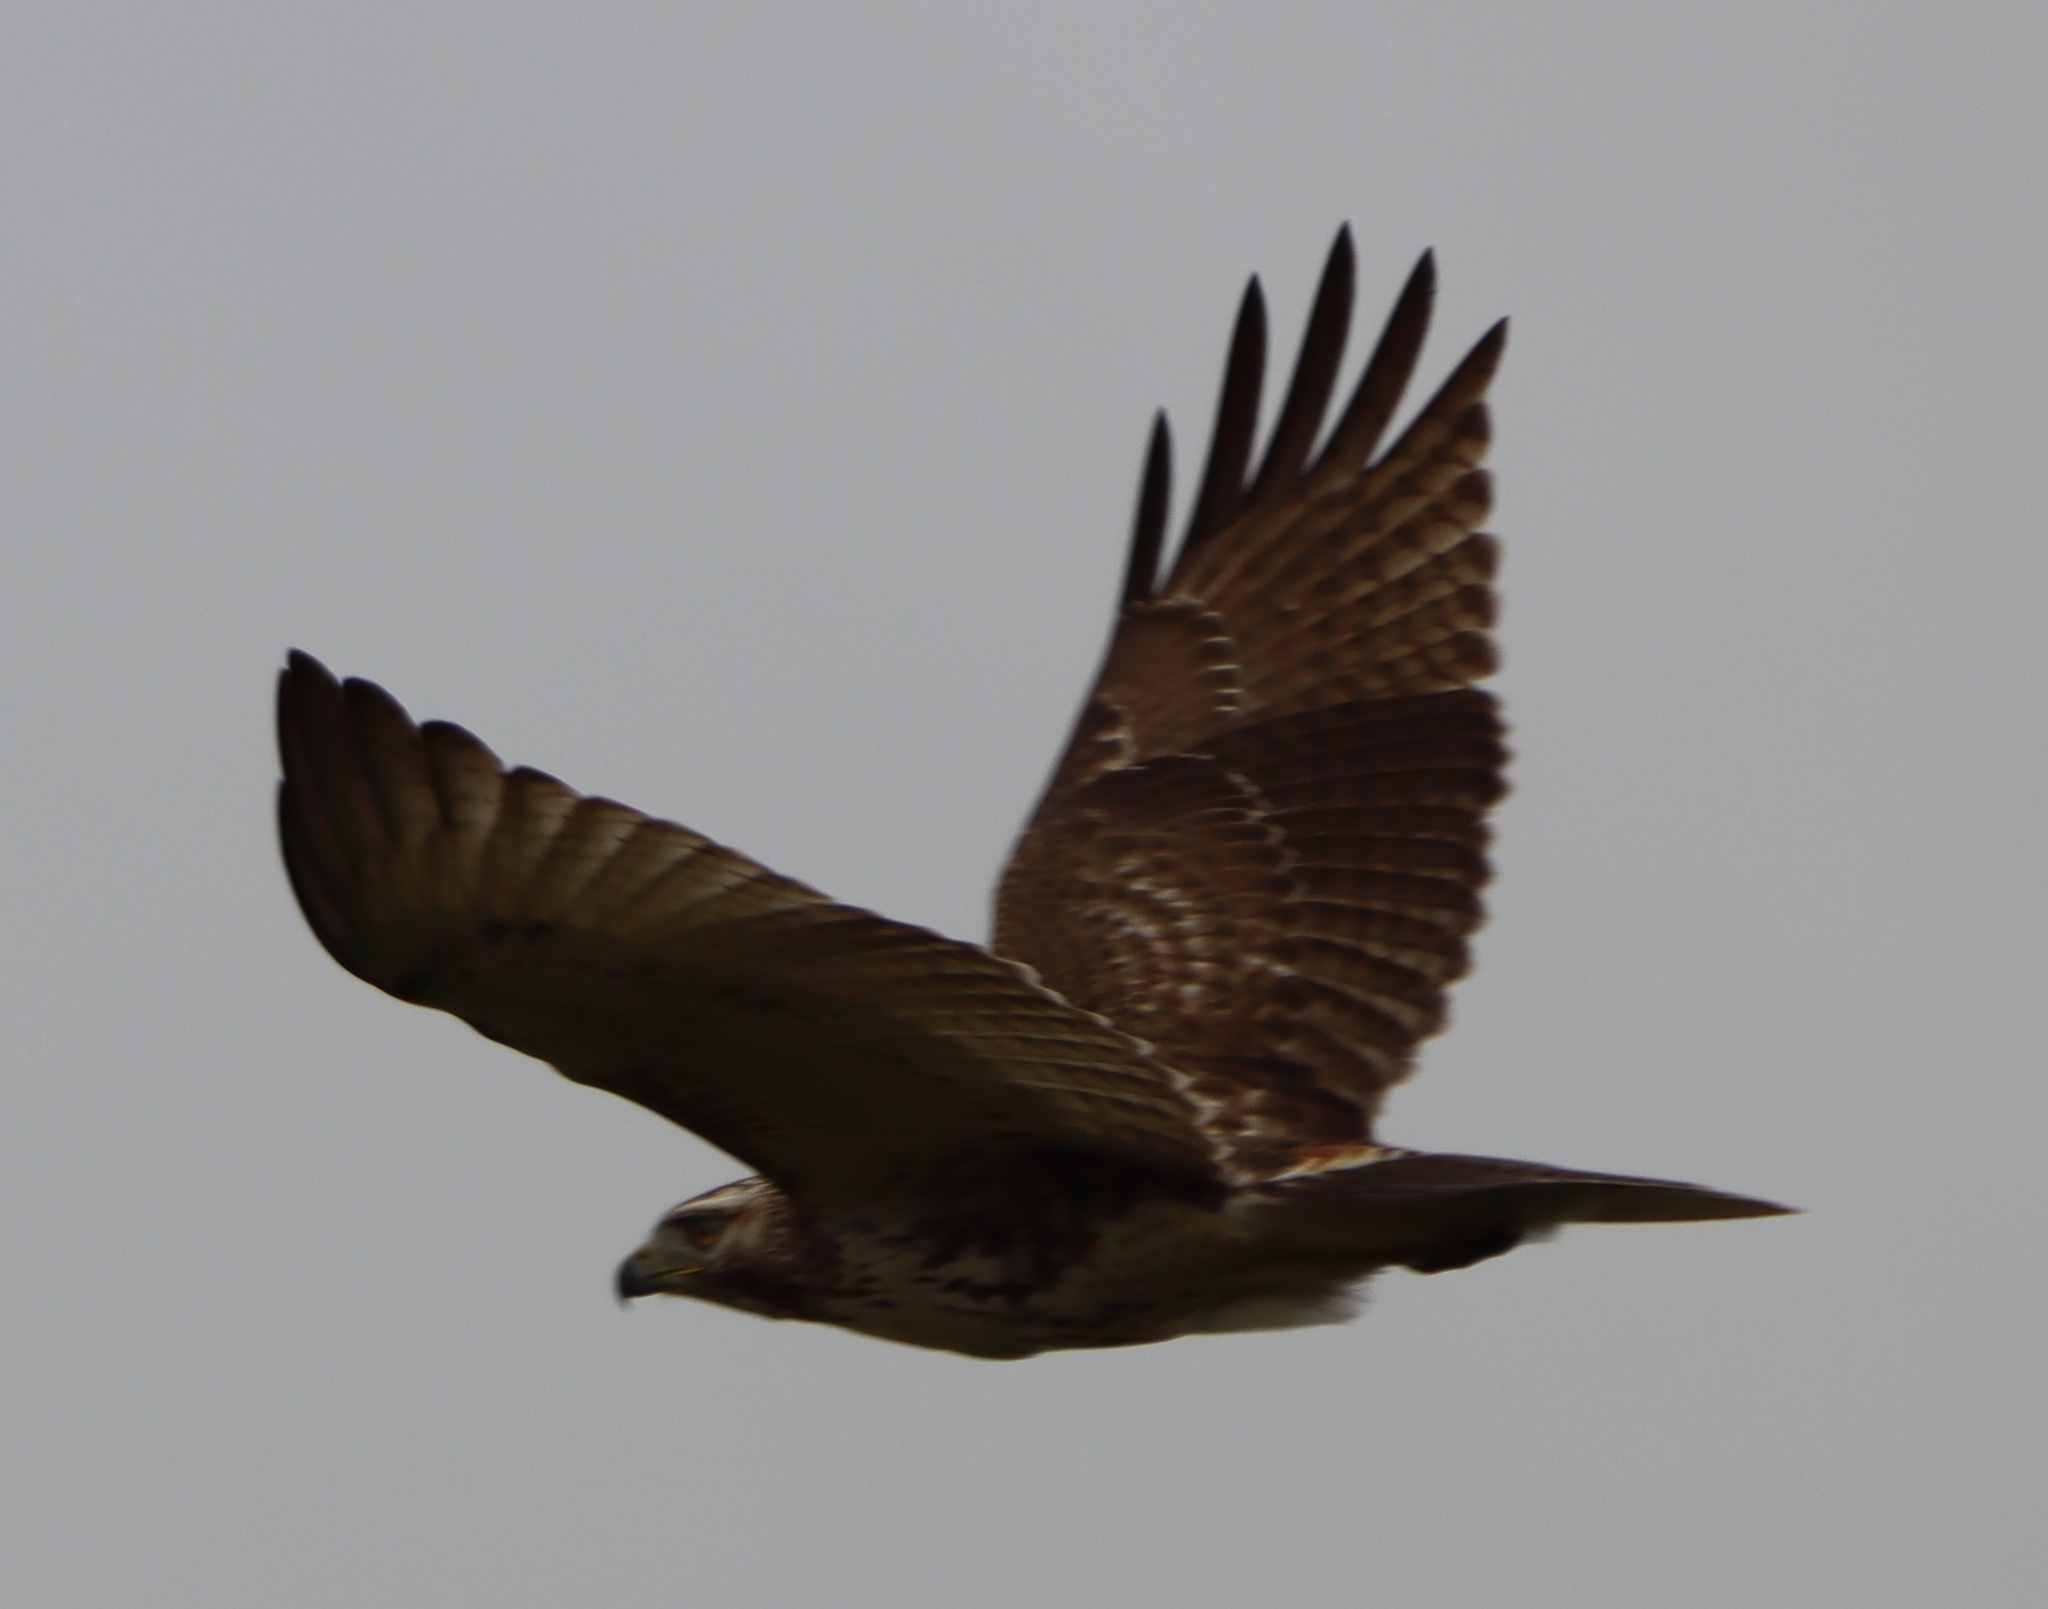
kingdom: Animalia
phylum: Chordata
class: Aves
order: Accipitriformes
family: Accipitridae
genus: Buteo
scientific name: Buteo jamaicensis
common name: Red-tailed hawk
